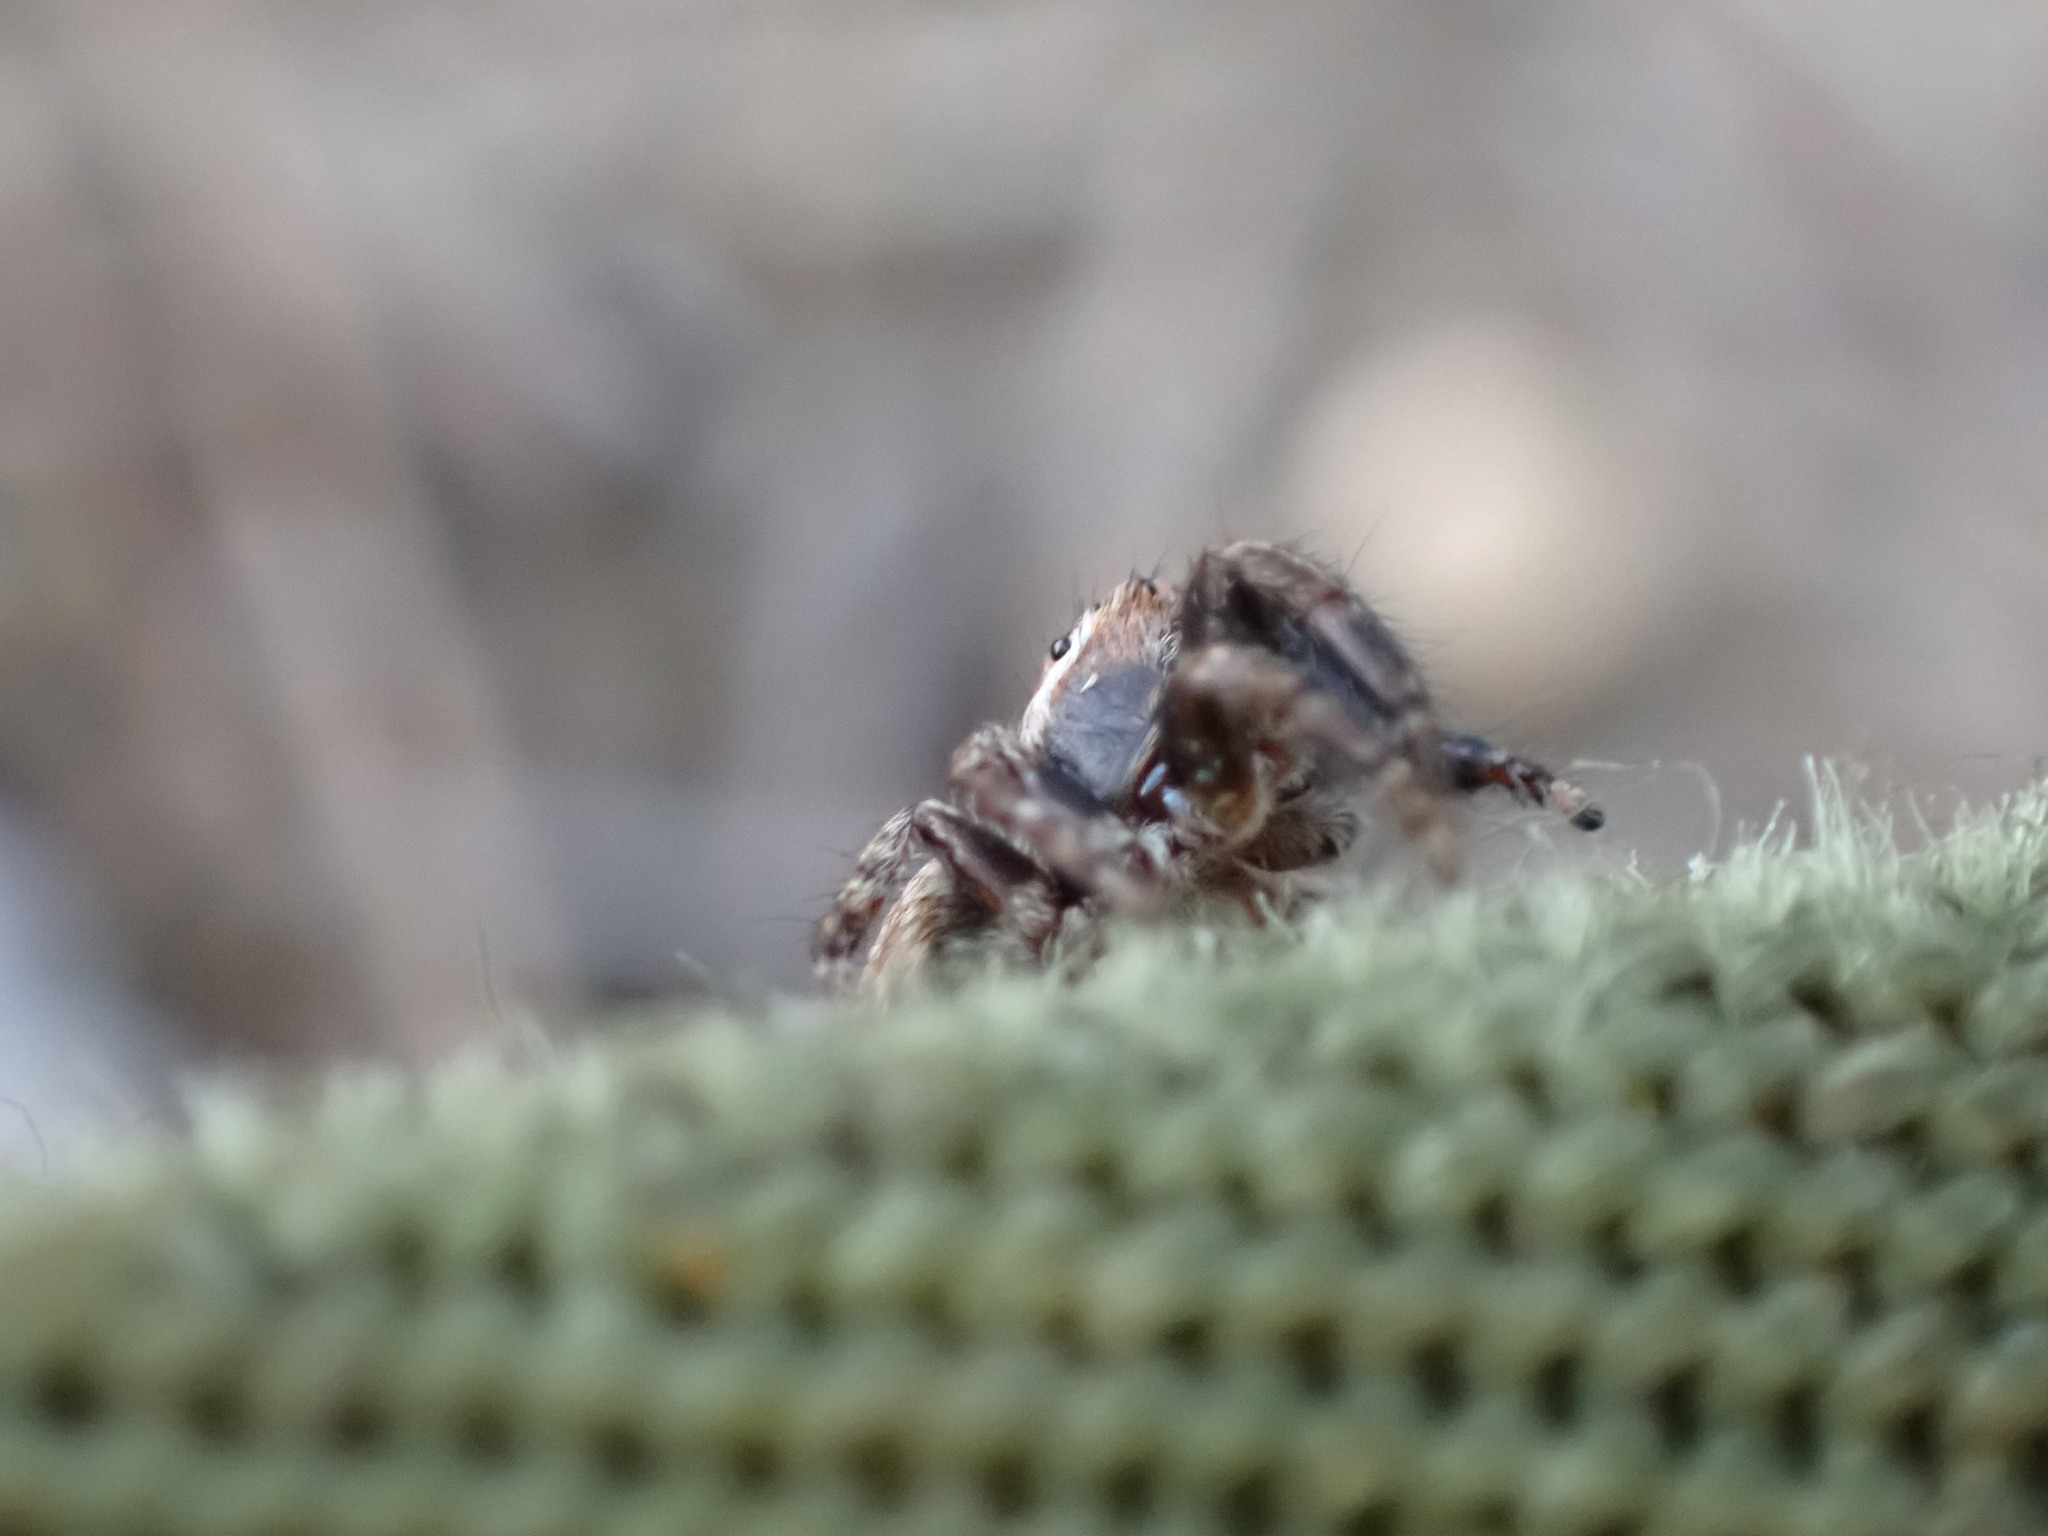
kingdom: Animalia
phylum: Arthropoda
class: Arachnida
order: Araneae
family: Salticidae
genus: Evarcha
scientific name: Evarcha michailovi
